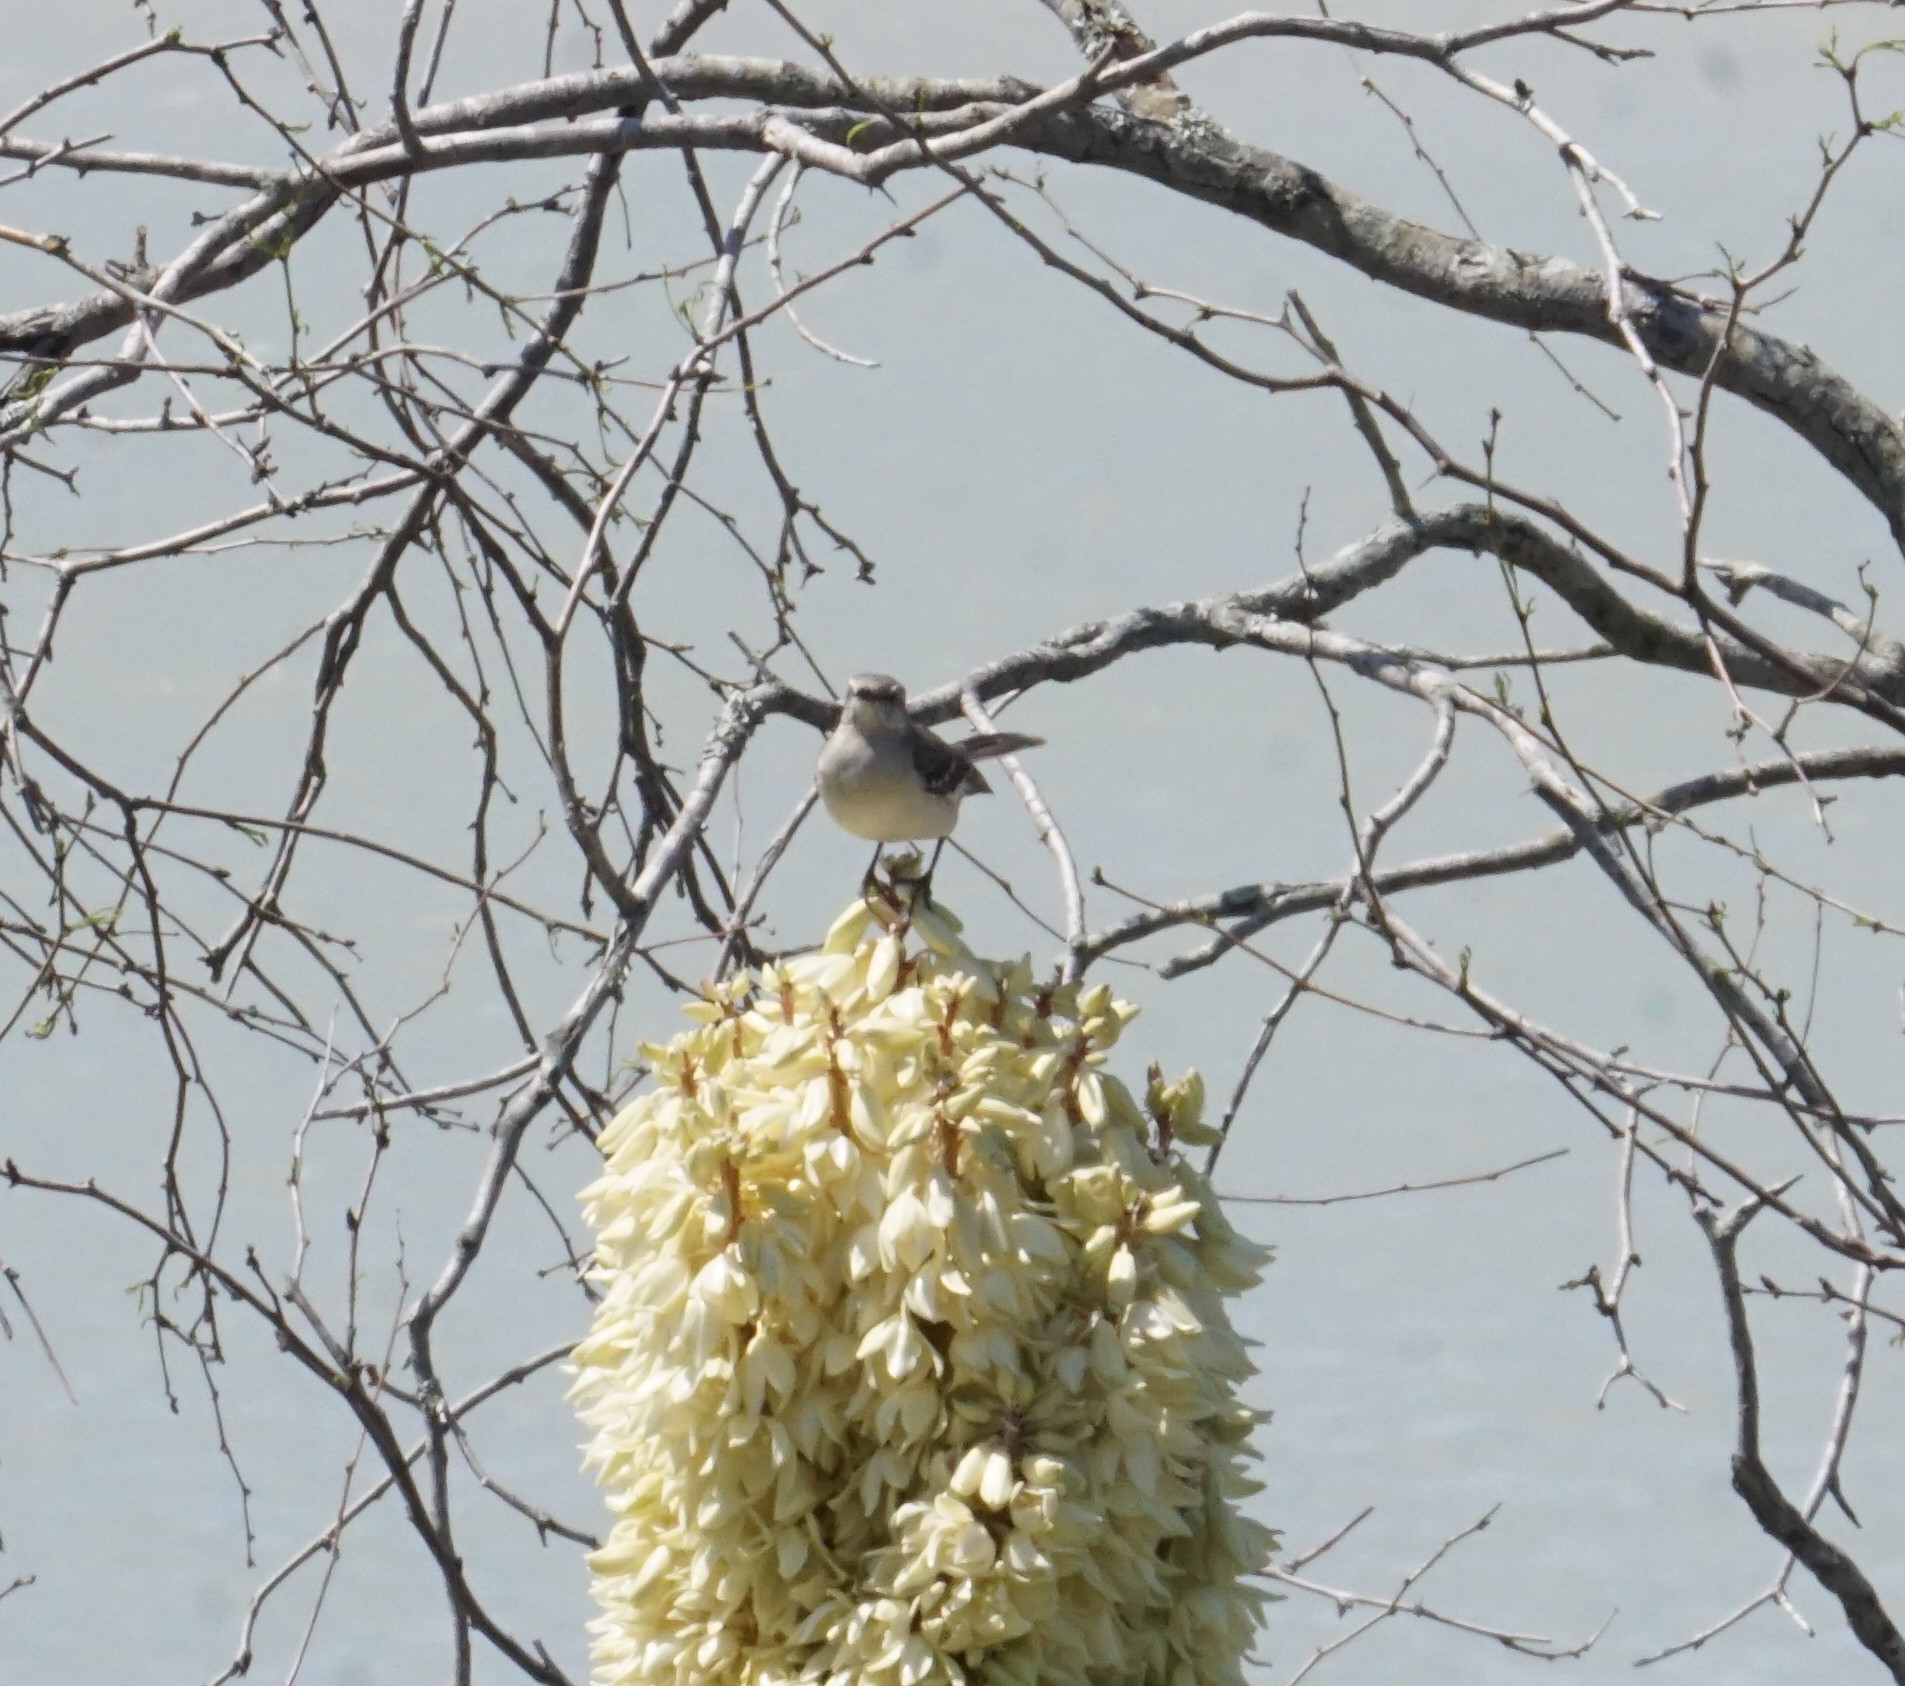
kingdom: Animalia
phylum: Chordata
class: Aves
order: Passeriformes
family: Mimidae
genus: Mimus
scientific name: Mimus polyglottos
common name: Northern mockingbird
